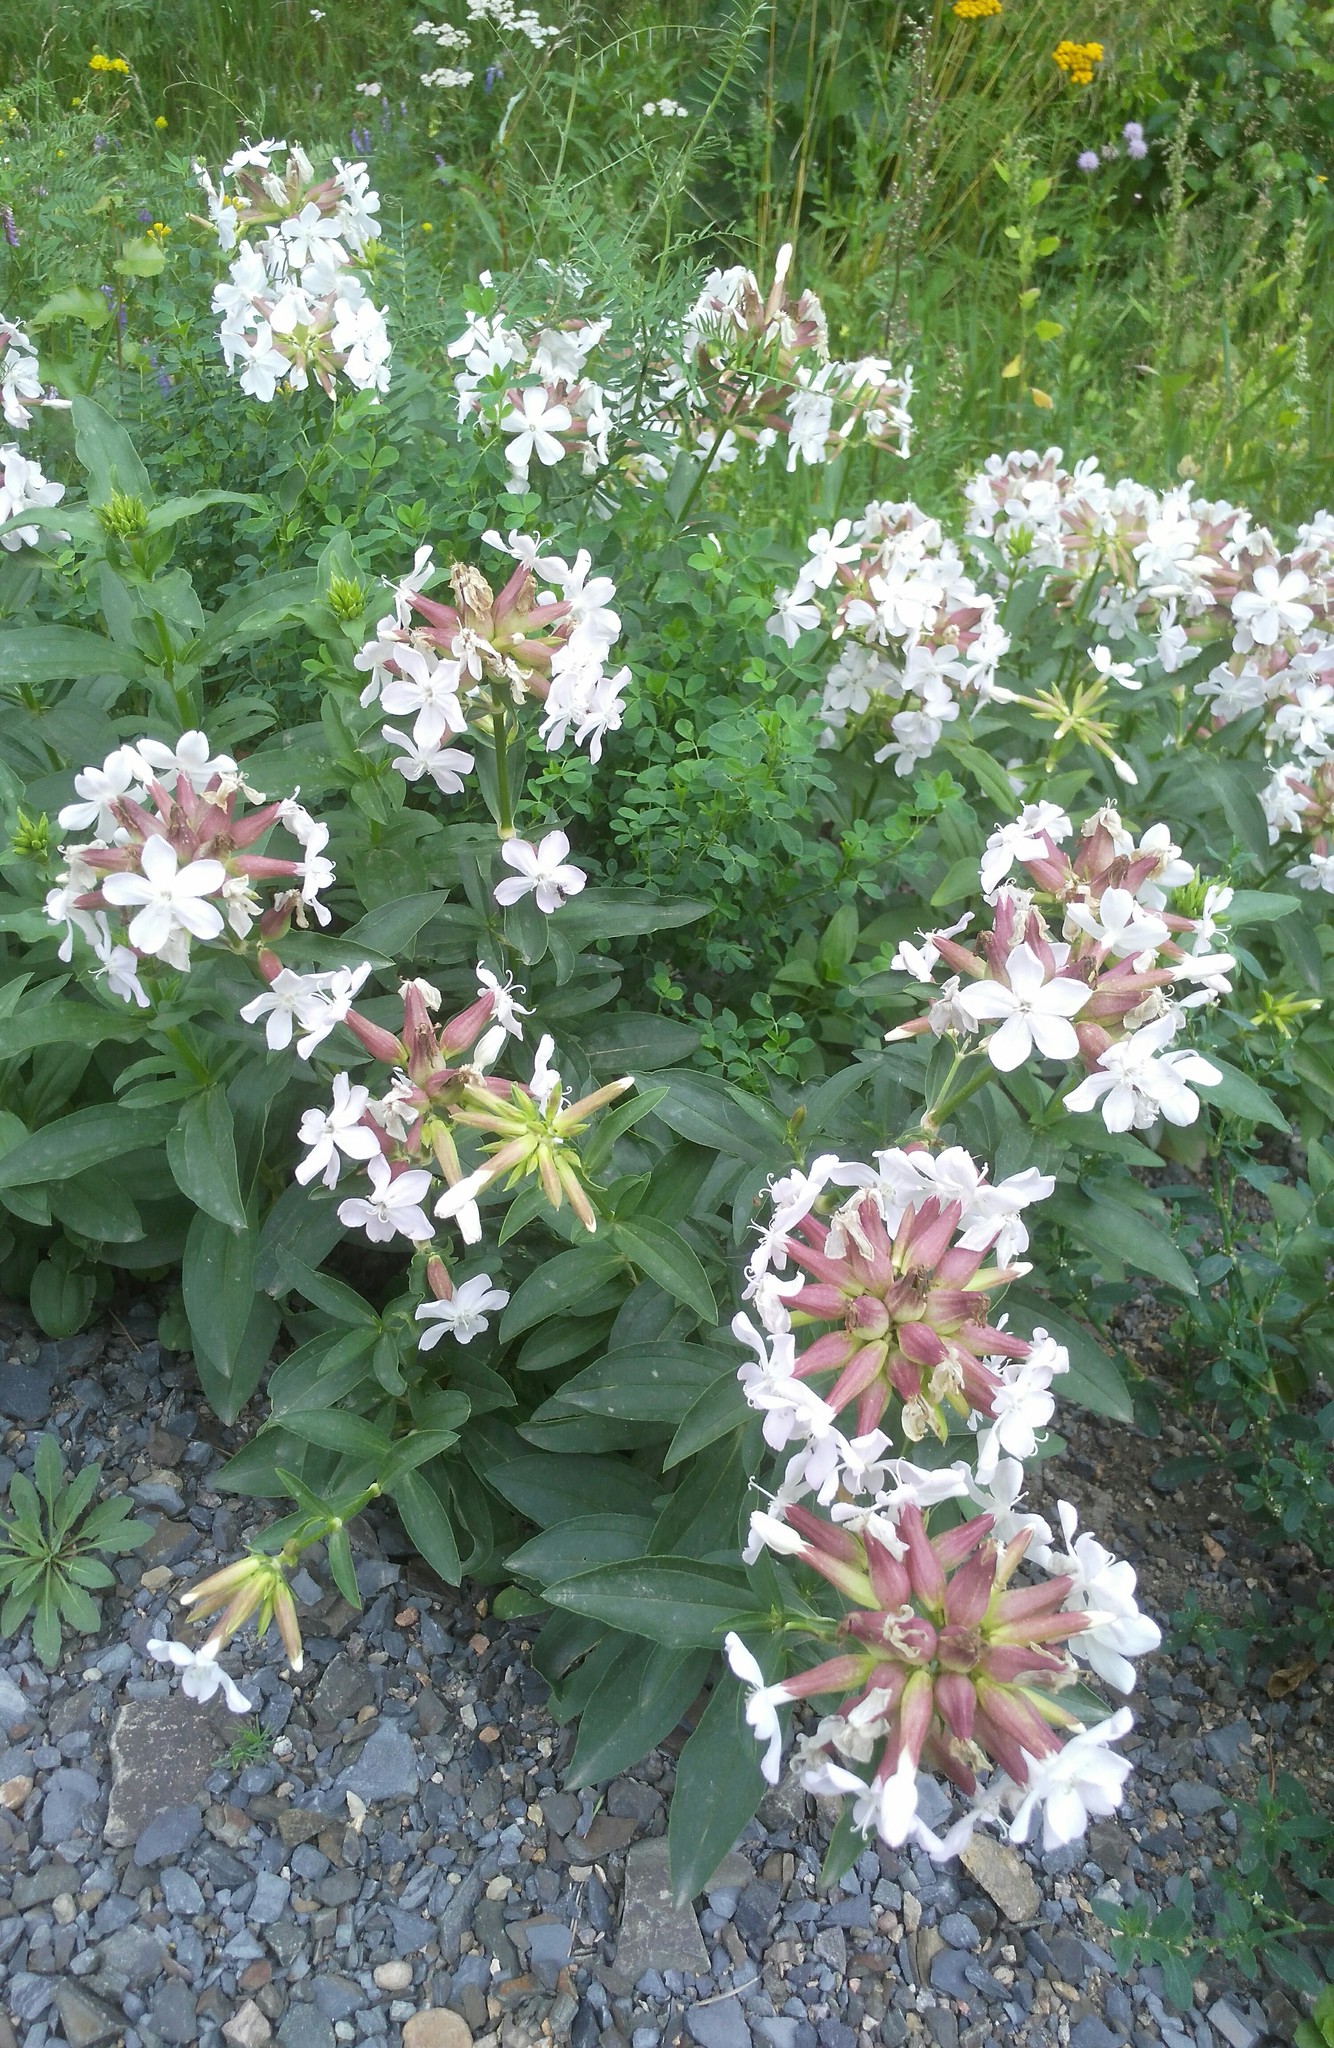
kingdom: Plantae
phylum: Tracheophyta
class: Magnoliopsida
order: Caryophyllales
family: Caryophyllaceae
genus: Saponaria
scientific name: Saponaria officinalis
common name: Soapwort
